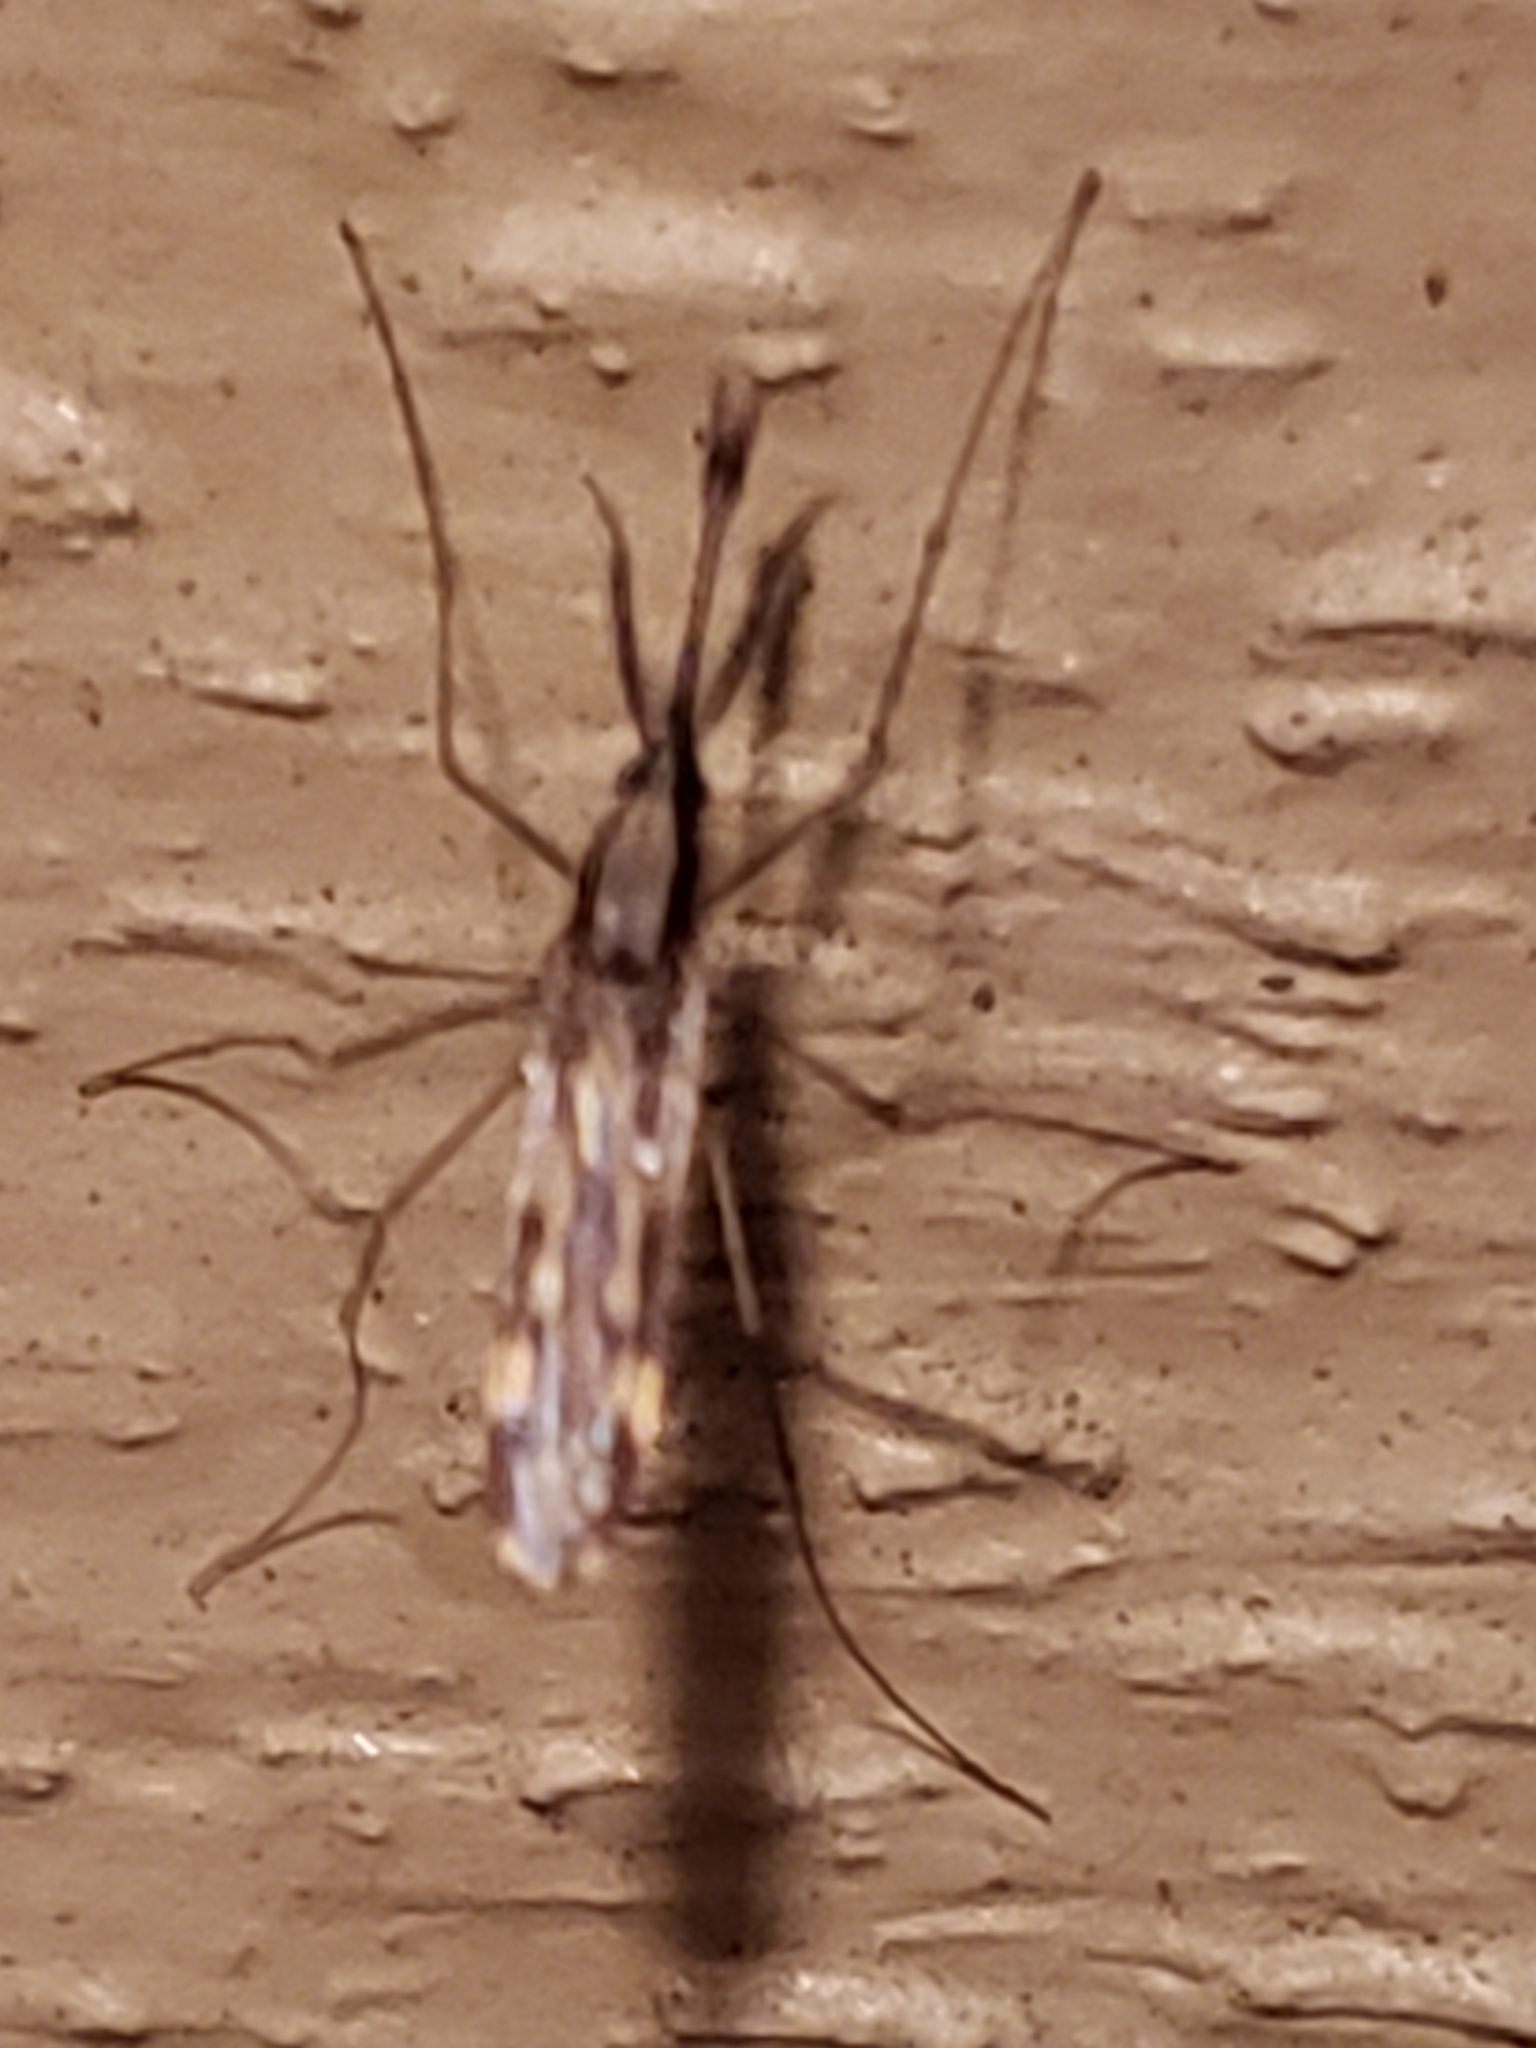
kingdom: Animalia
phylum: Arthropoda
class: Insecta
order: Diptera
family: Culicidae
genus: Anopheles
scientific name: Anopheles punctipennis
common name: Woodland malaria mosquito
